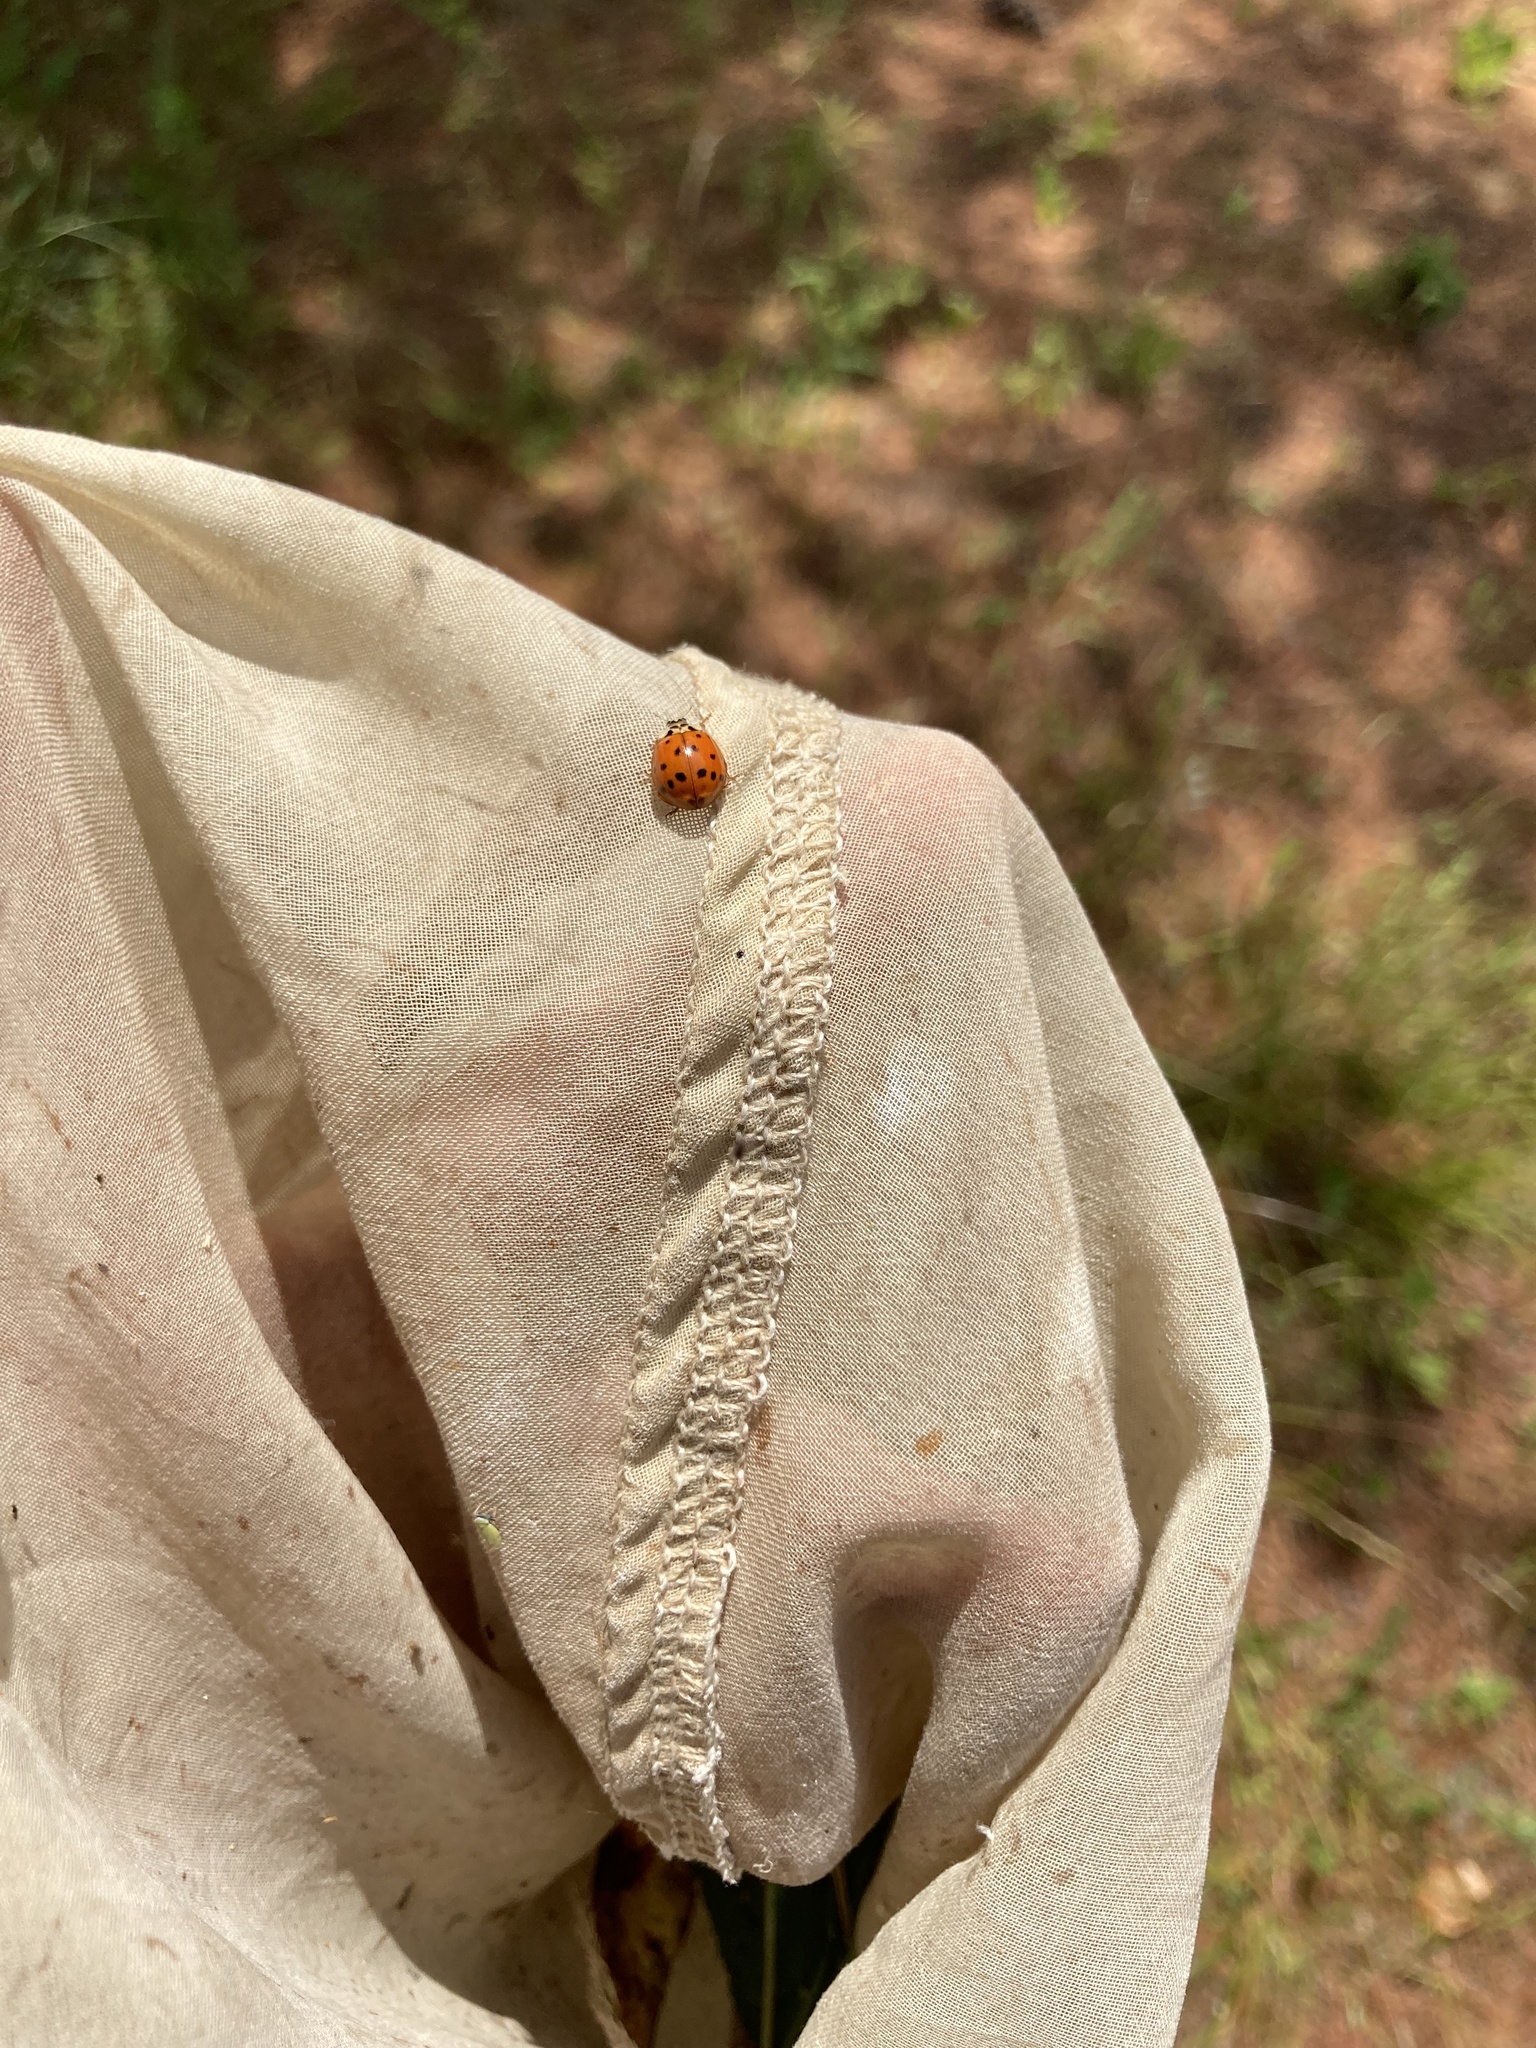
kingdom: Animalia
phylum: Arthropoda
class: Insecta
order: Coleoptera
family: Coccinellidae
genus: Harmonia
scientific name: Harmonia axyridis
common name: Harlequin ladybird
